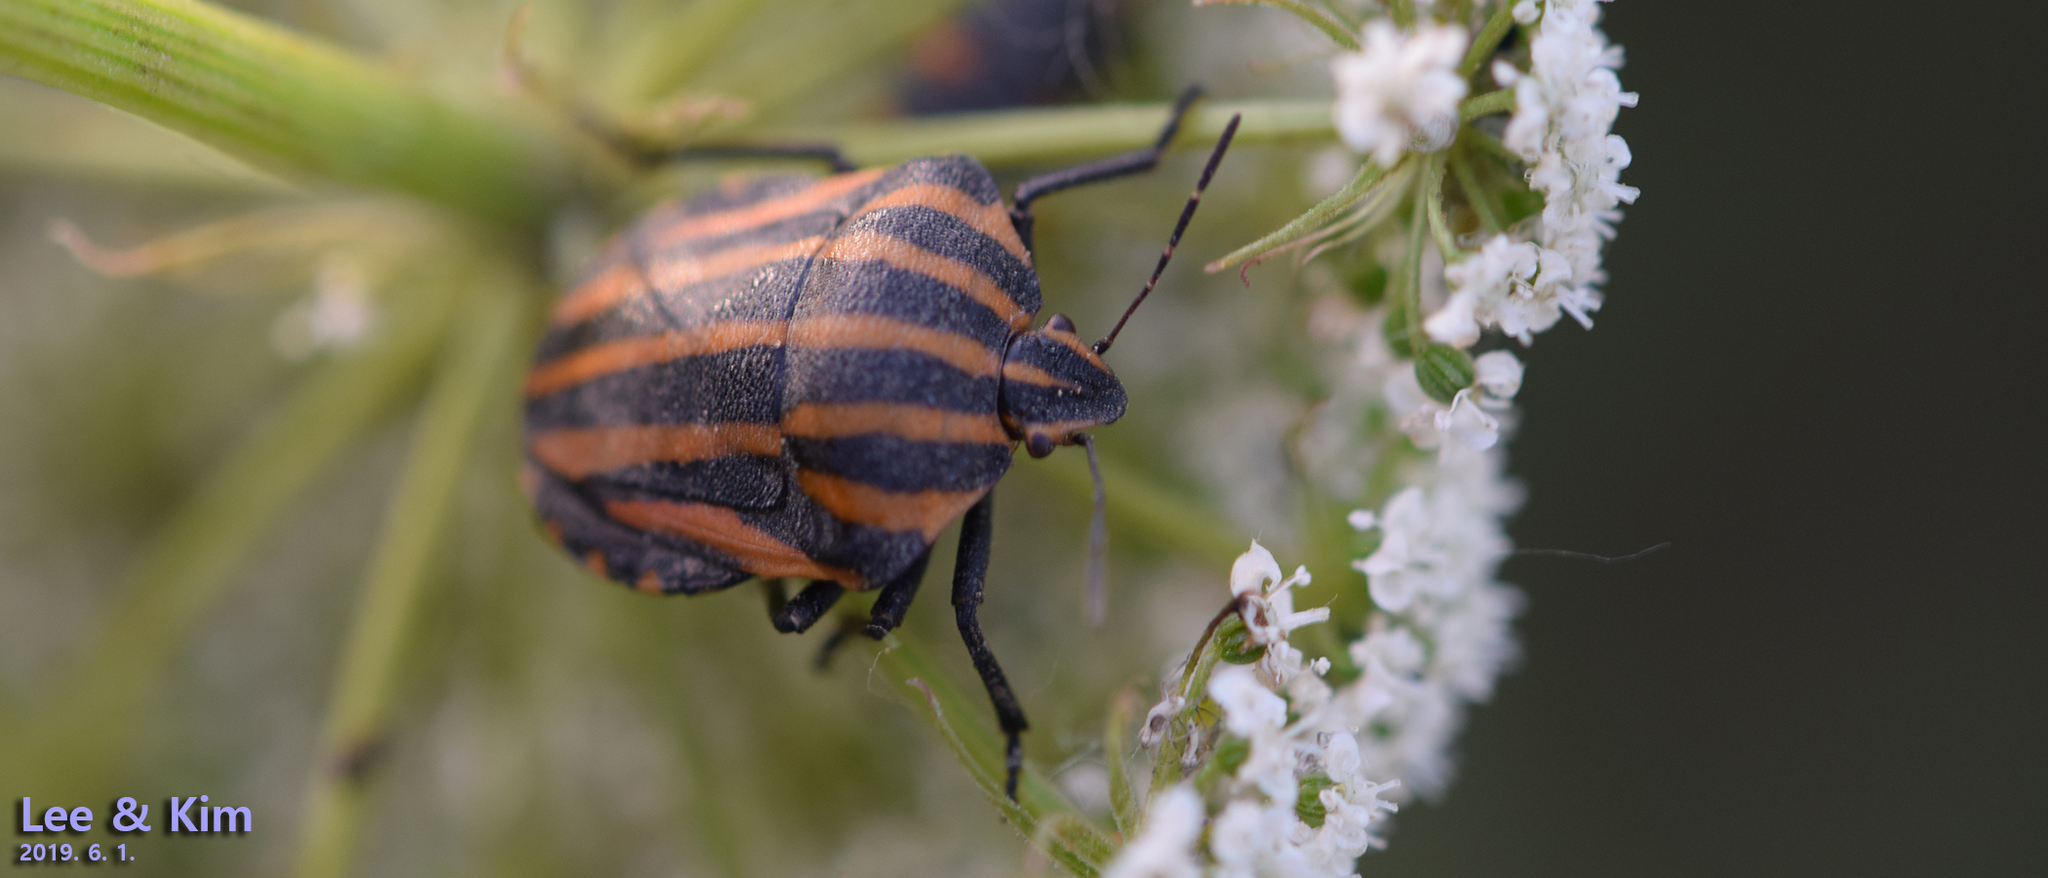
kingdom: Animalia
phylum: Arthropoda
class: Insecta
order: Hemiptera
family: Pentatomidae
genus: Graphosoma
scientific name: Graphosoma rubrolineatum
